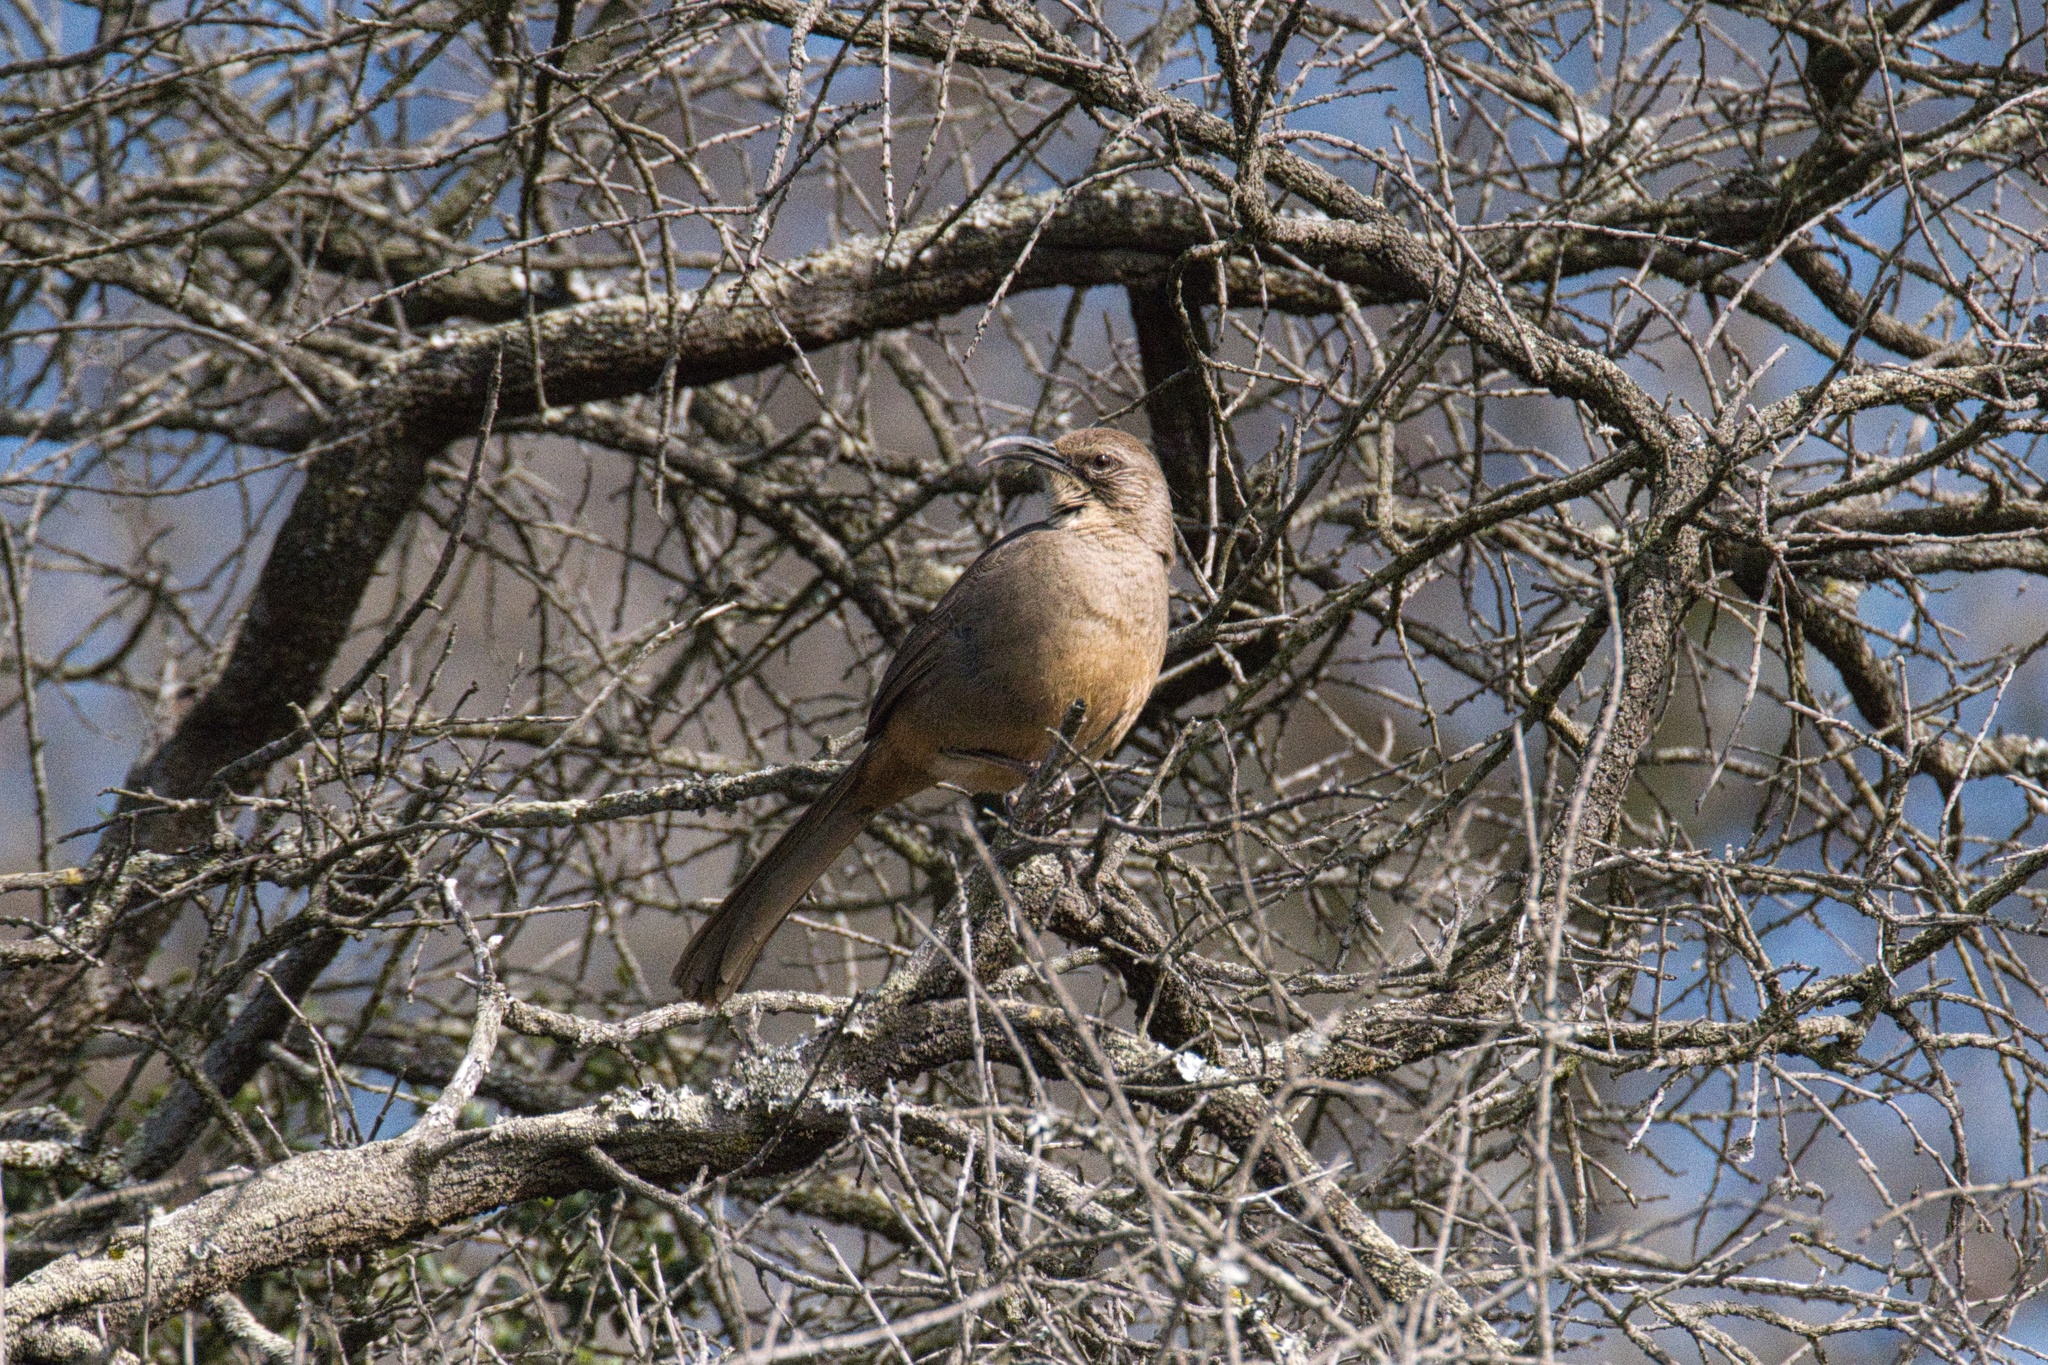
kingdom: Animalia
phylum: Chordata
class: Aves
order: Passeriformes
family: Mimidae
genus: Toxostoma
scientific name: Toxostoma redivivum
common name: California thrasher
